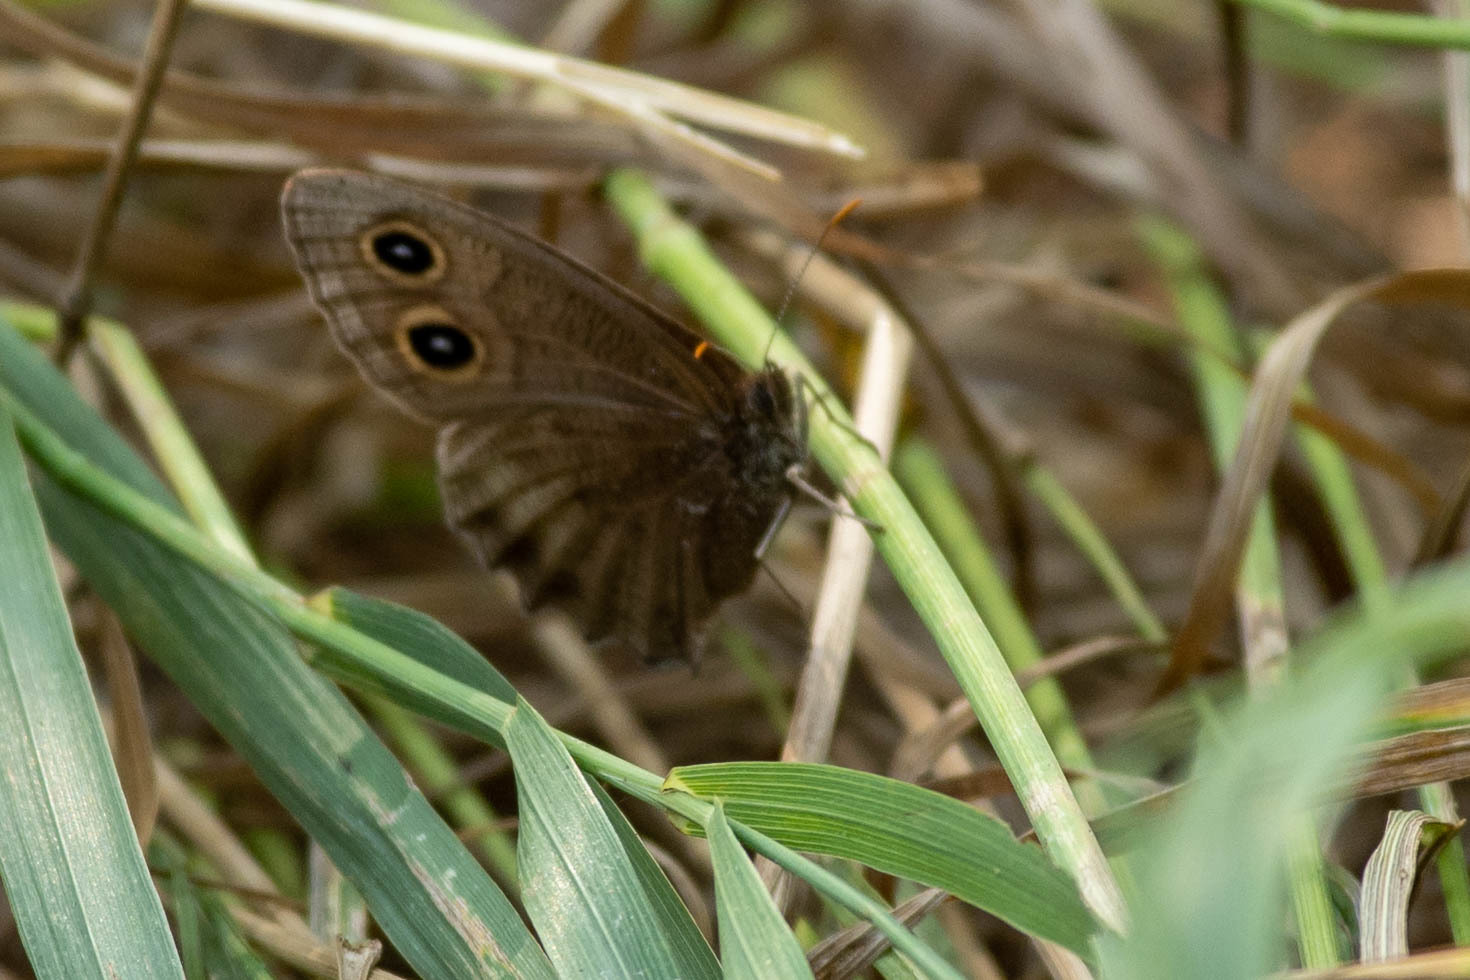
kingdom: Animalia
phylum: Arthropoda
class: Insecta
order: Lepidoptera
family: Nymphalidae
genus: Cercyonis
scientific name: Cercyonis pegala
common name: Common wood-nymph
